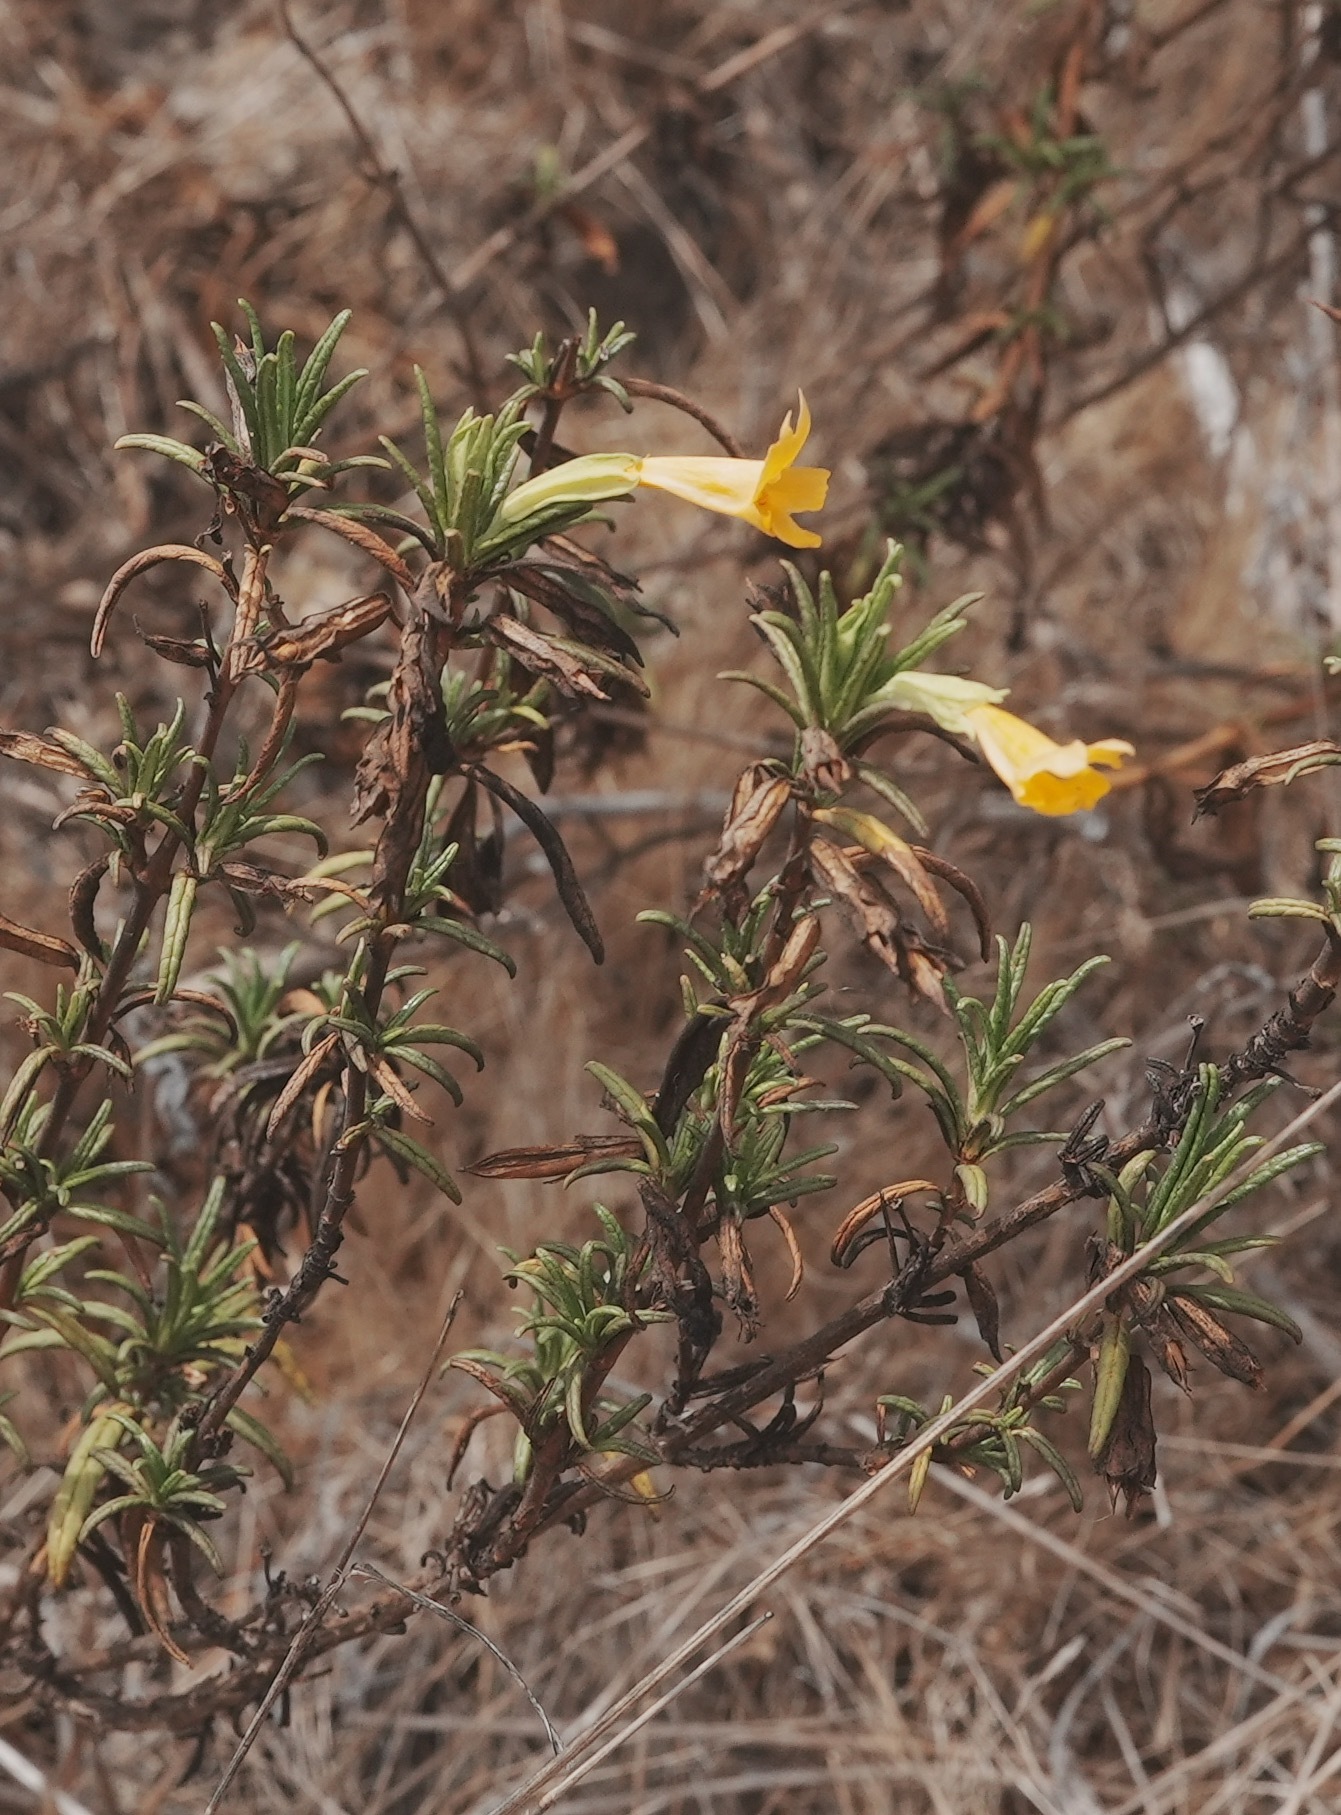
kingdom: Plantae
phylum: Tracheophyta
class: Magnoliopsida
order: Lamiales
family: Phrymaceae
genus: Diplacus
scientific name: Diplacus aurantiacus
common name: Bush monkey-flower
